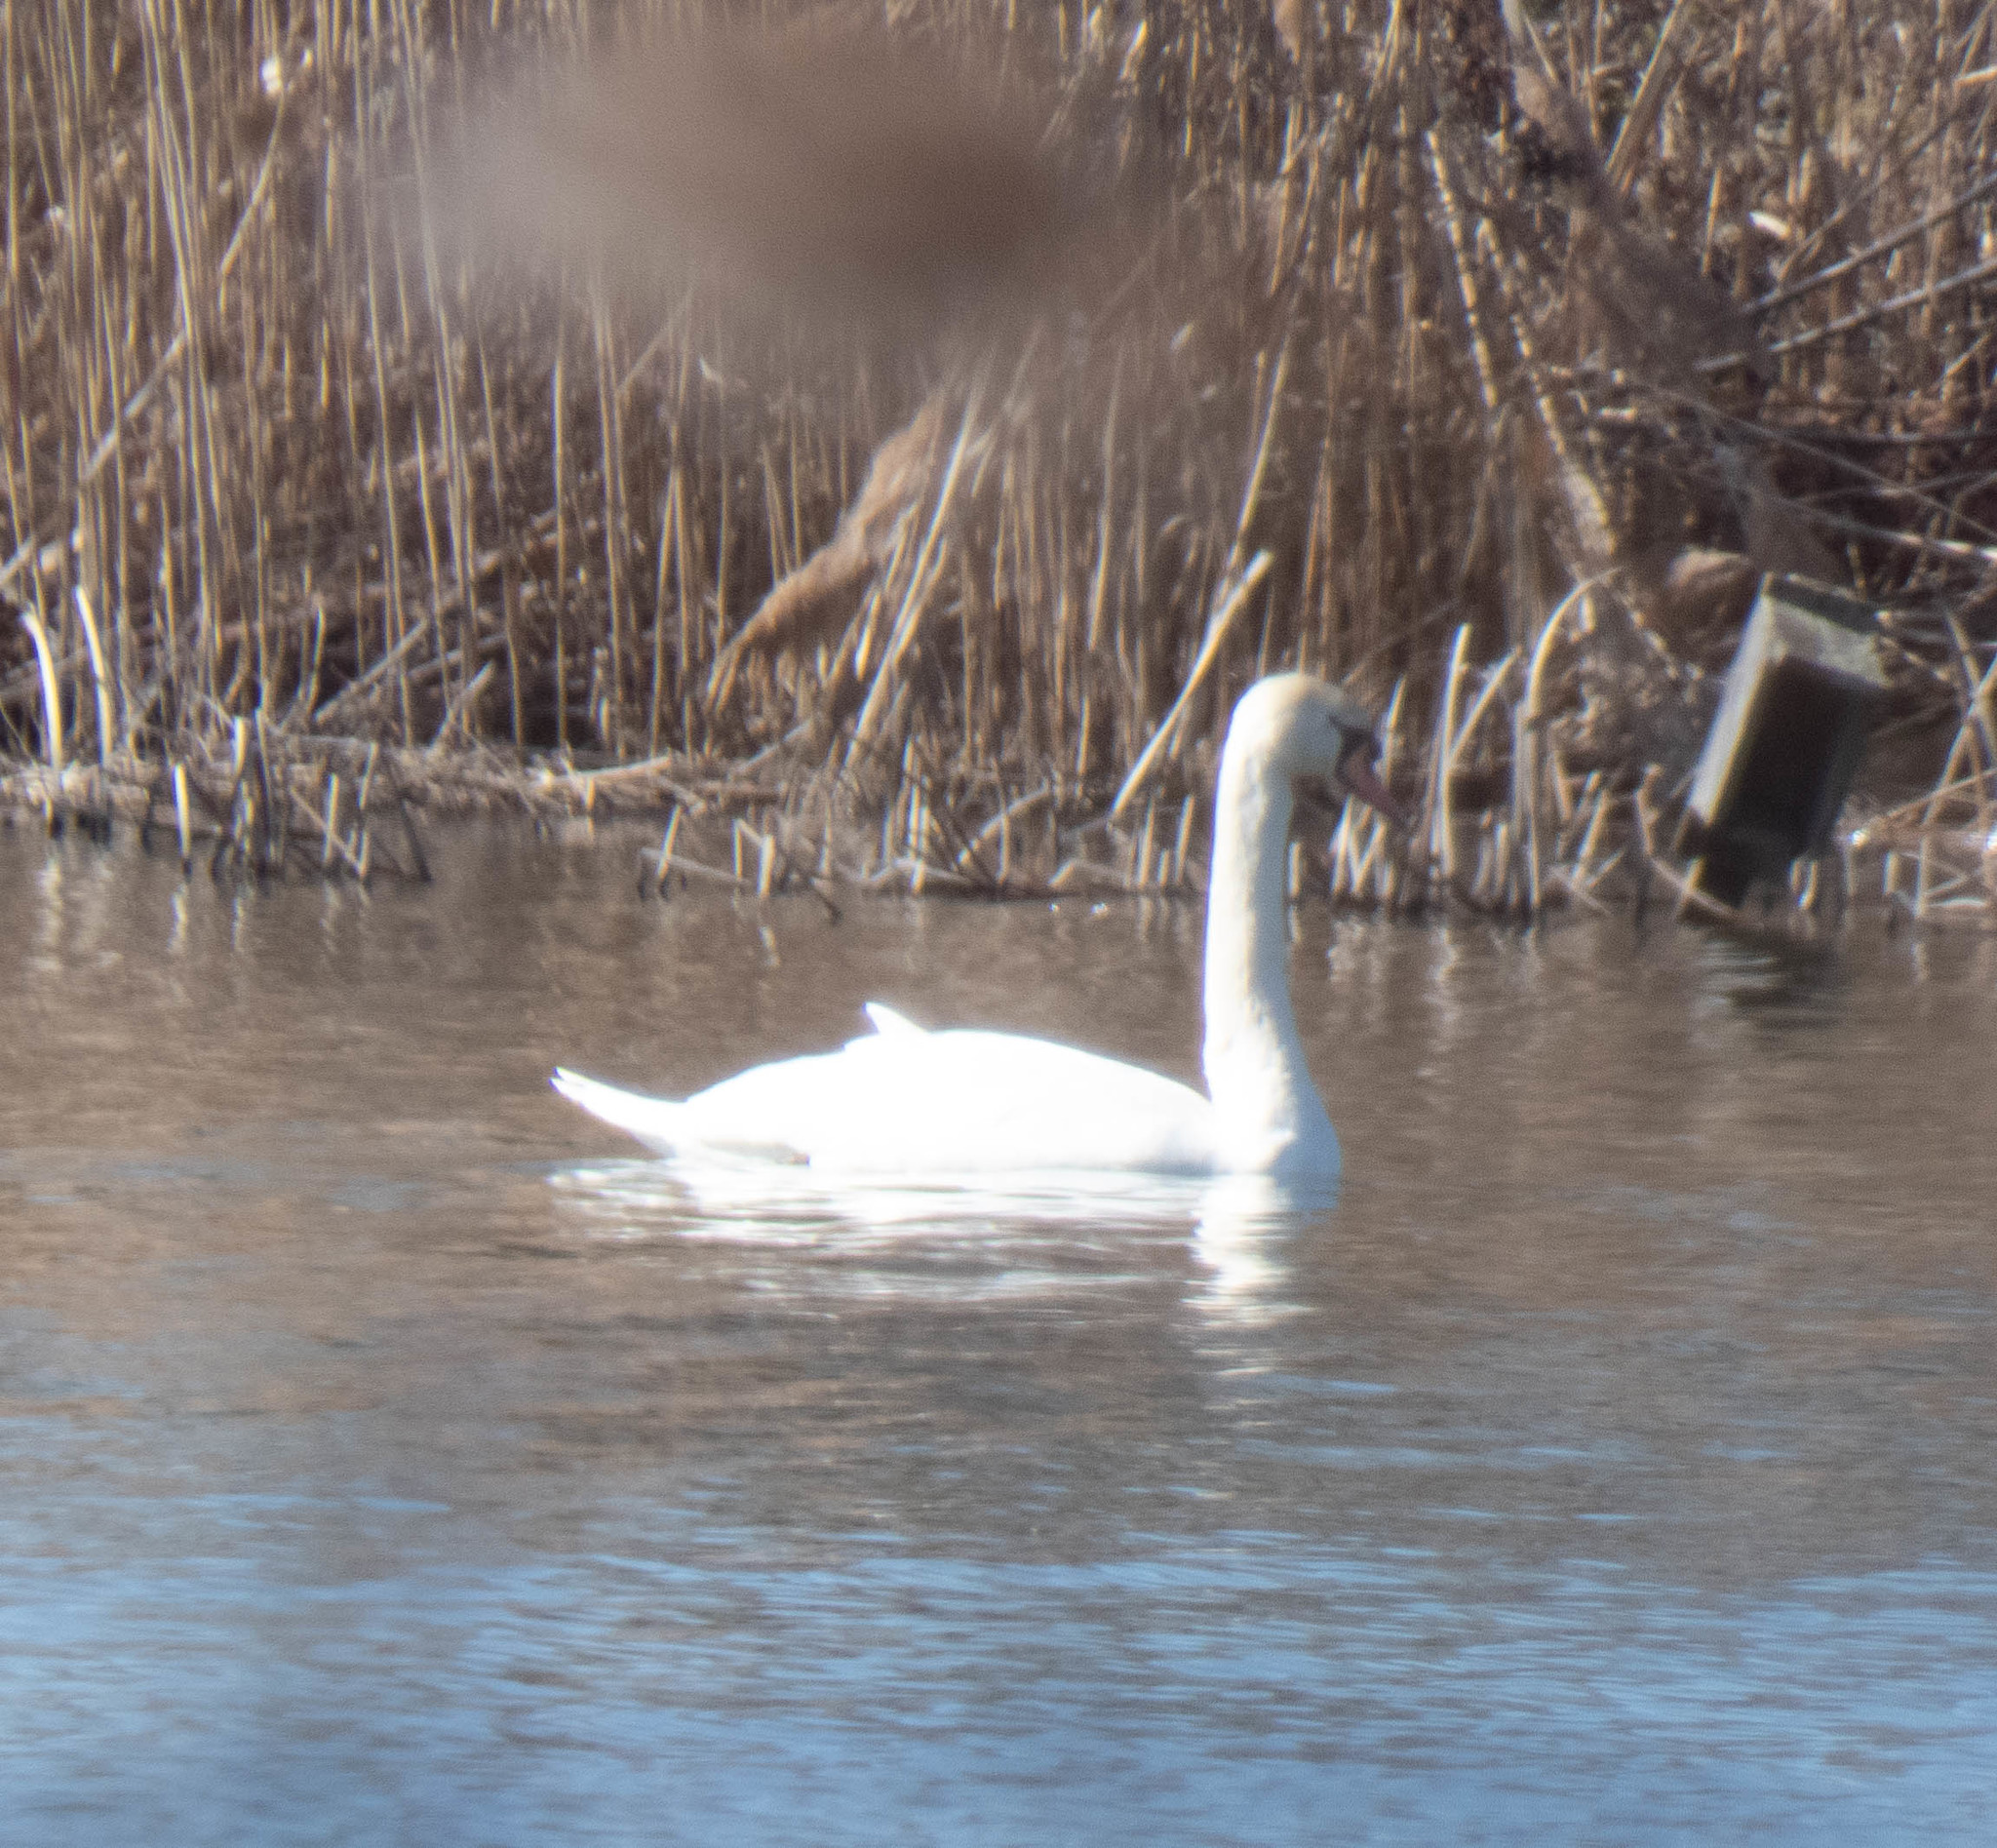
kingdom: Animalia
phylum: Chordata
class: Aves
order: Anseriformes
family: Anatidae
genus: Cygnus
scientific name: Cygnus olor
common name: Mute swan
